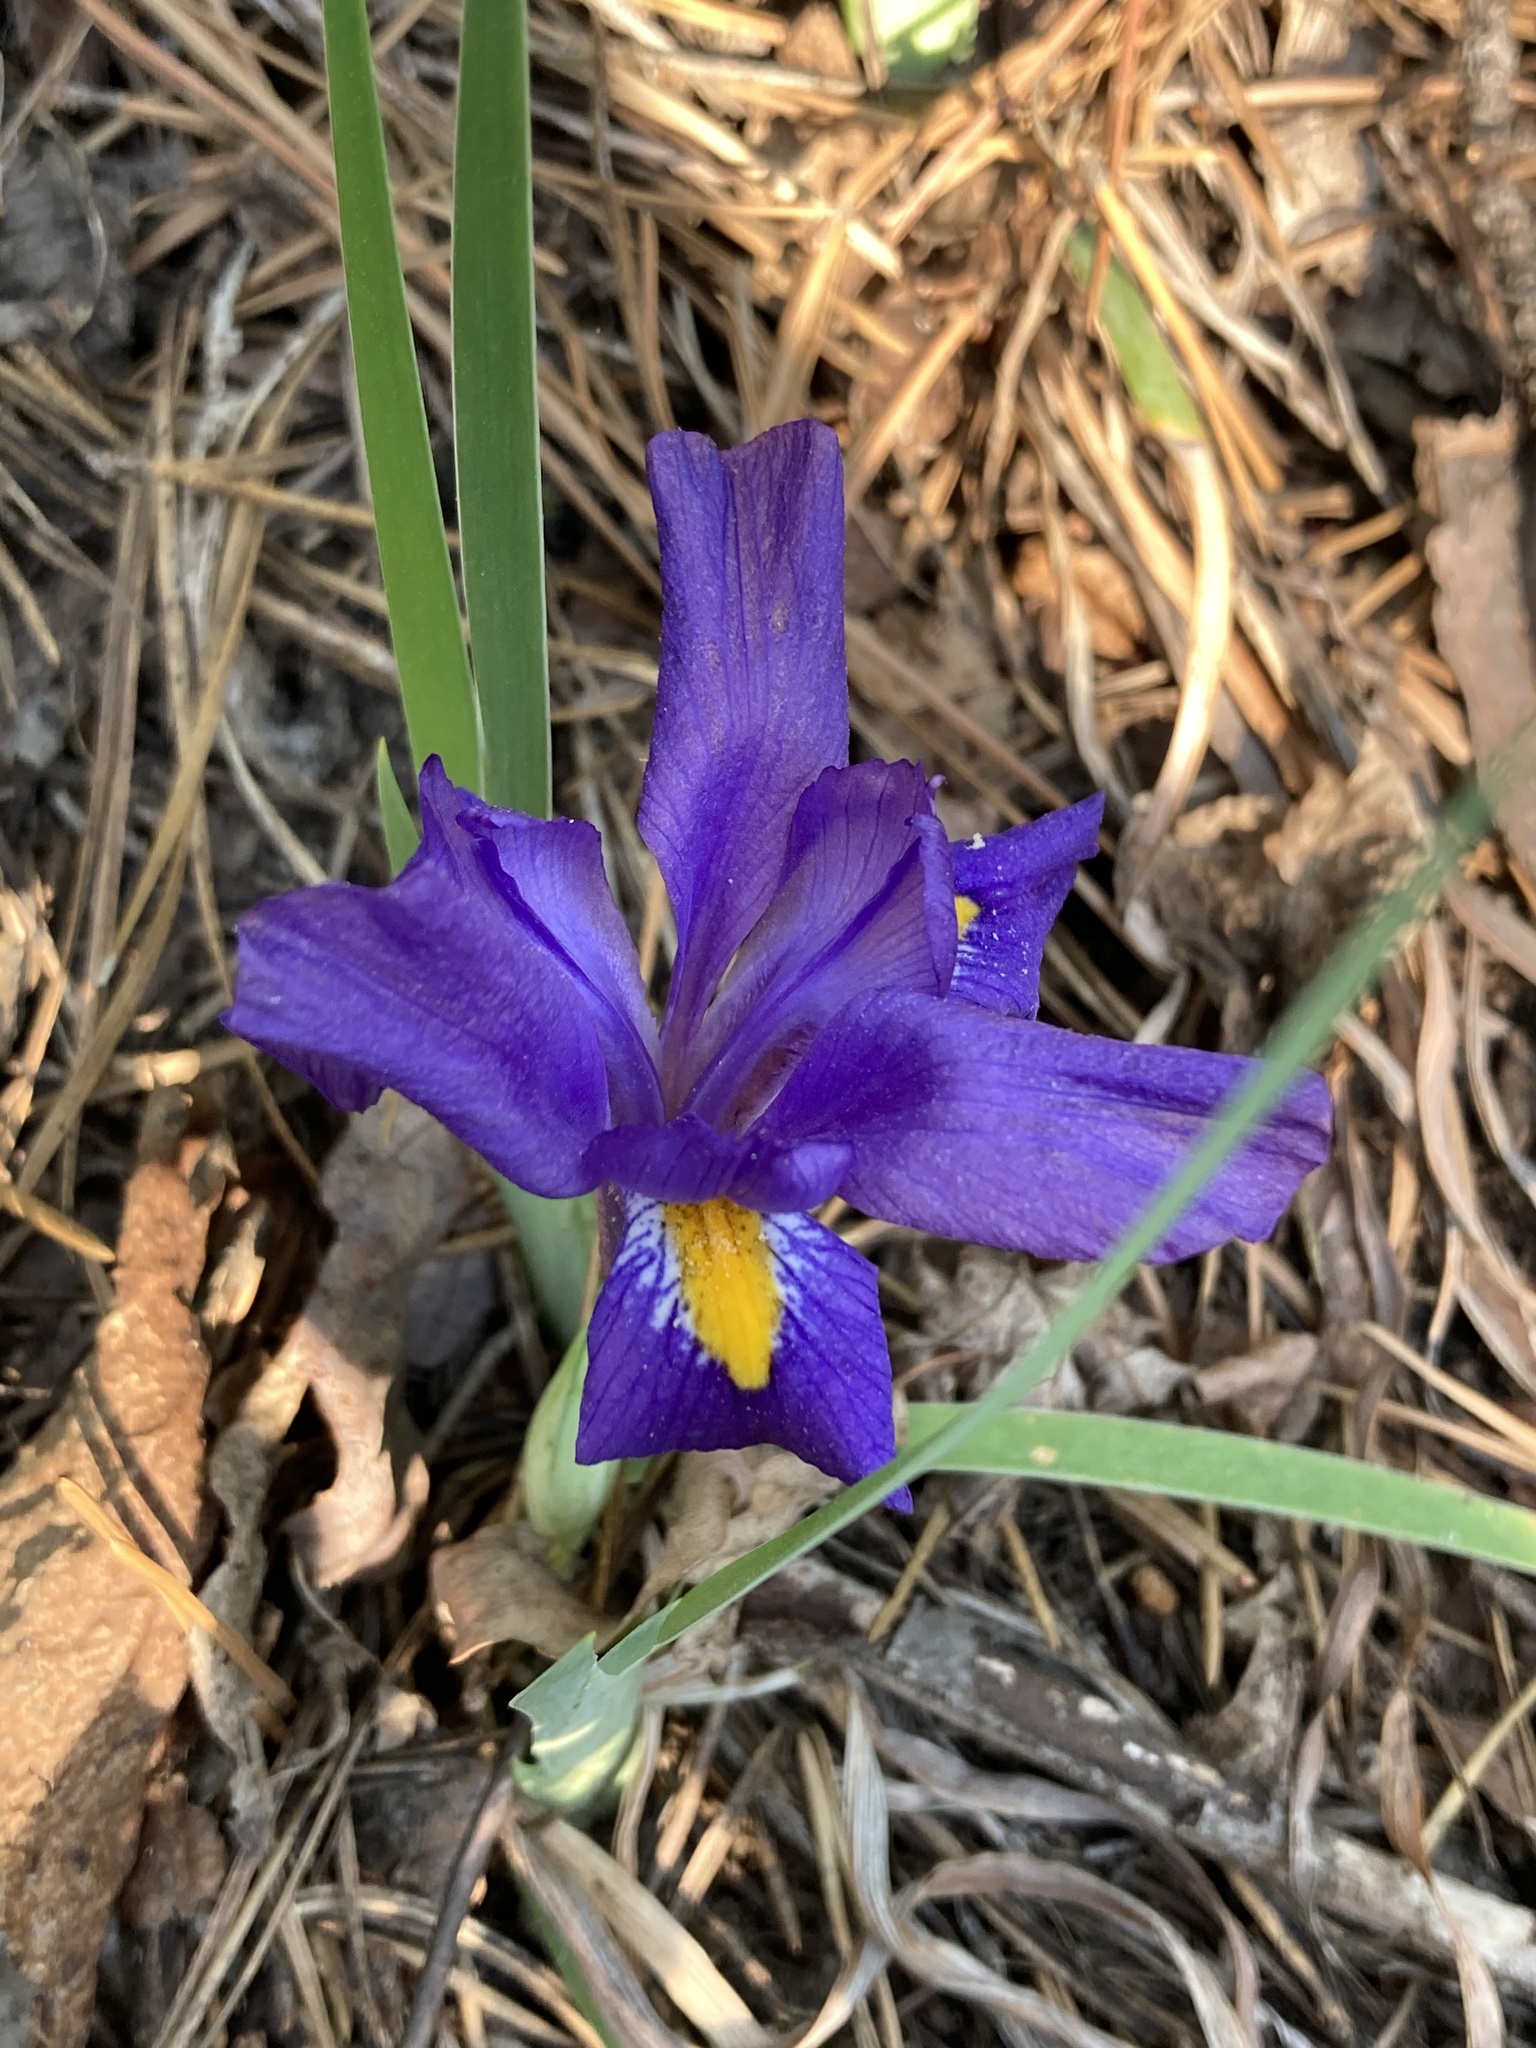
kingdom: Plantae
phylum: Tracheophyta
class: Liliopsida
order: Asparagales
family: Iridaceae
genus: Iris
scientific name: Iris verna
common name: Dwarf iris
